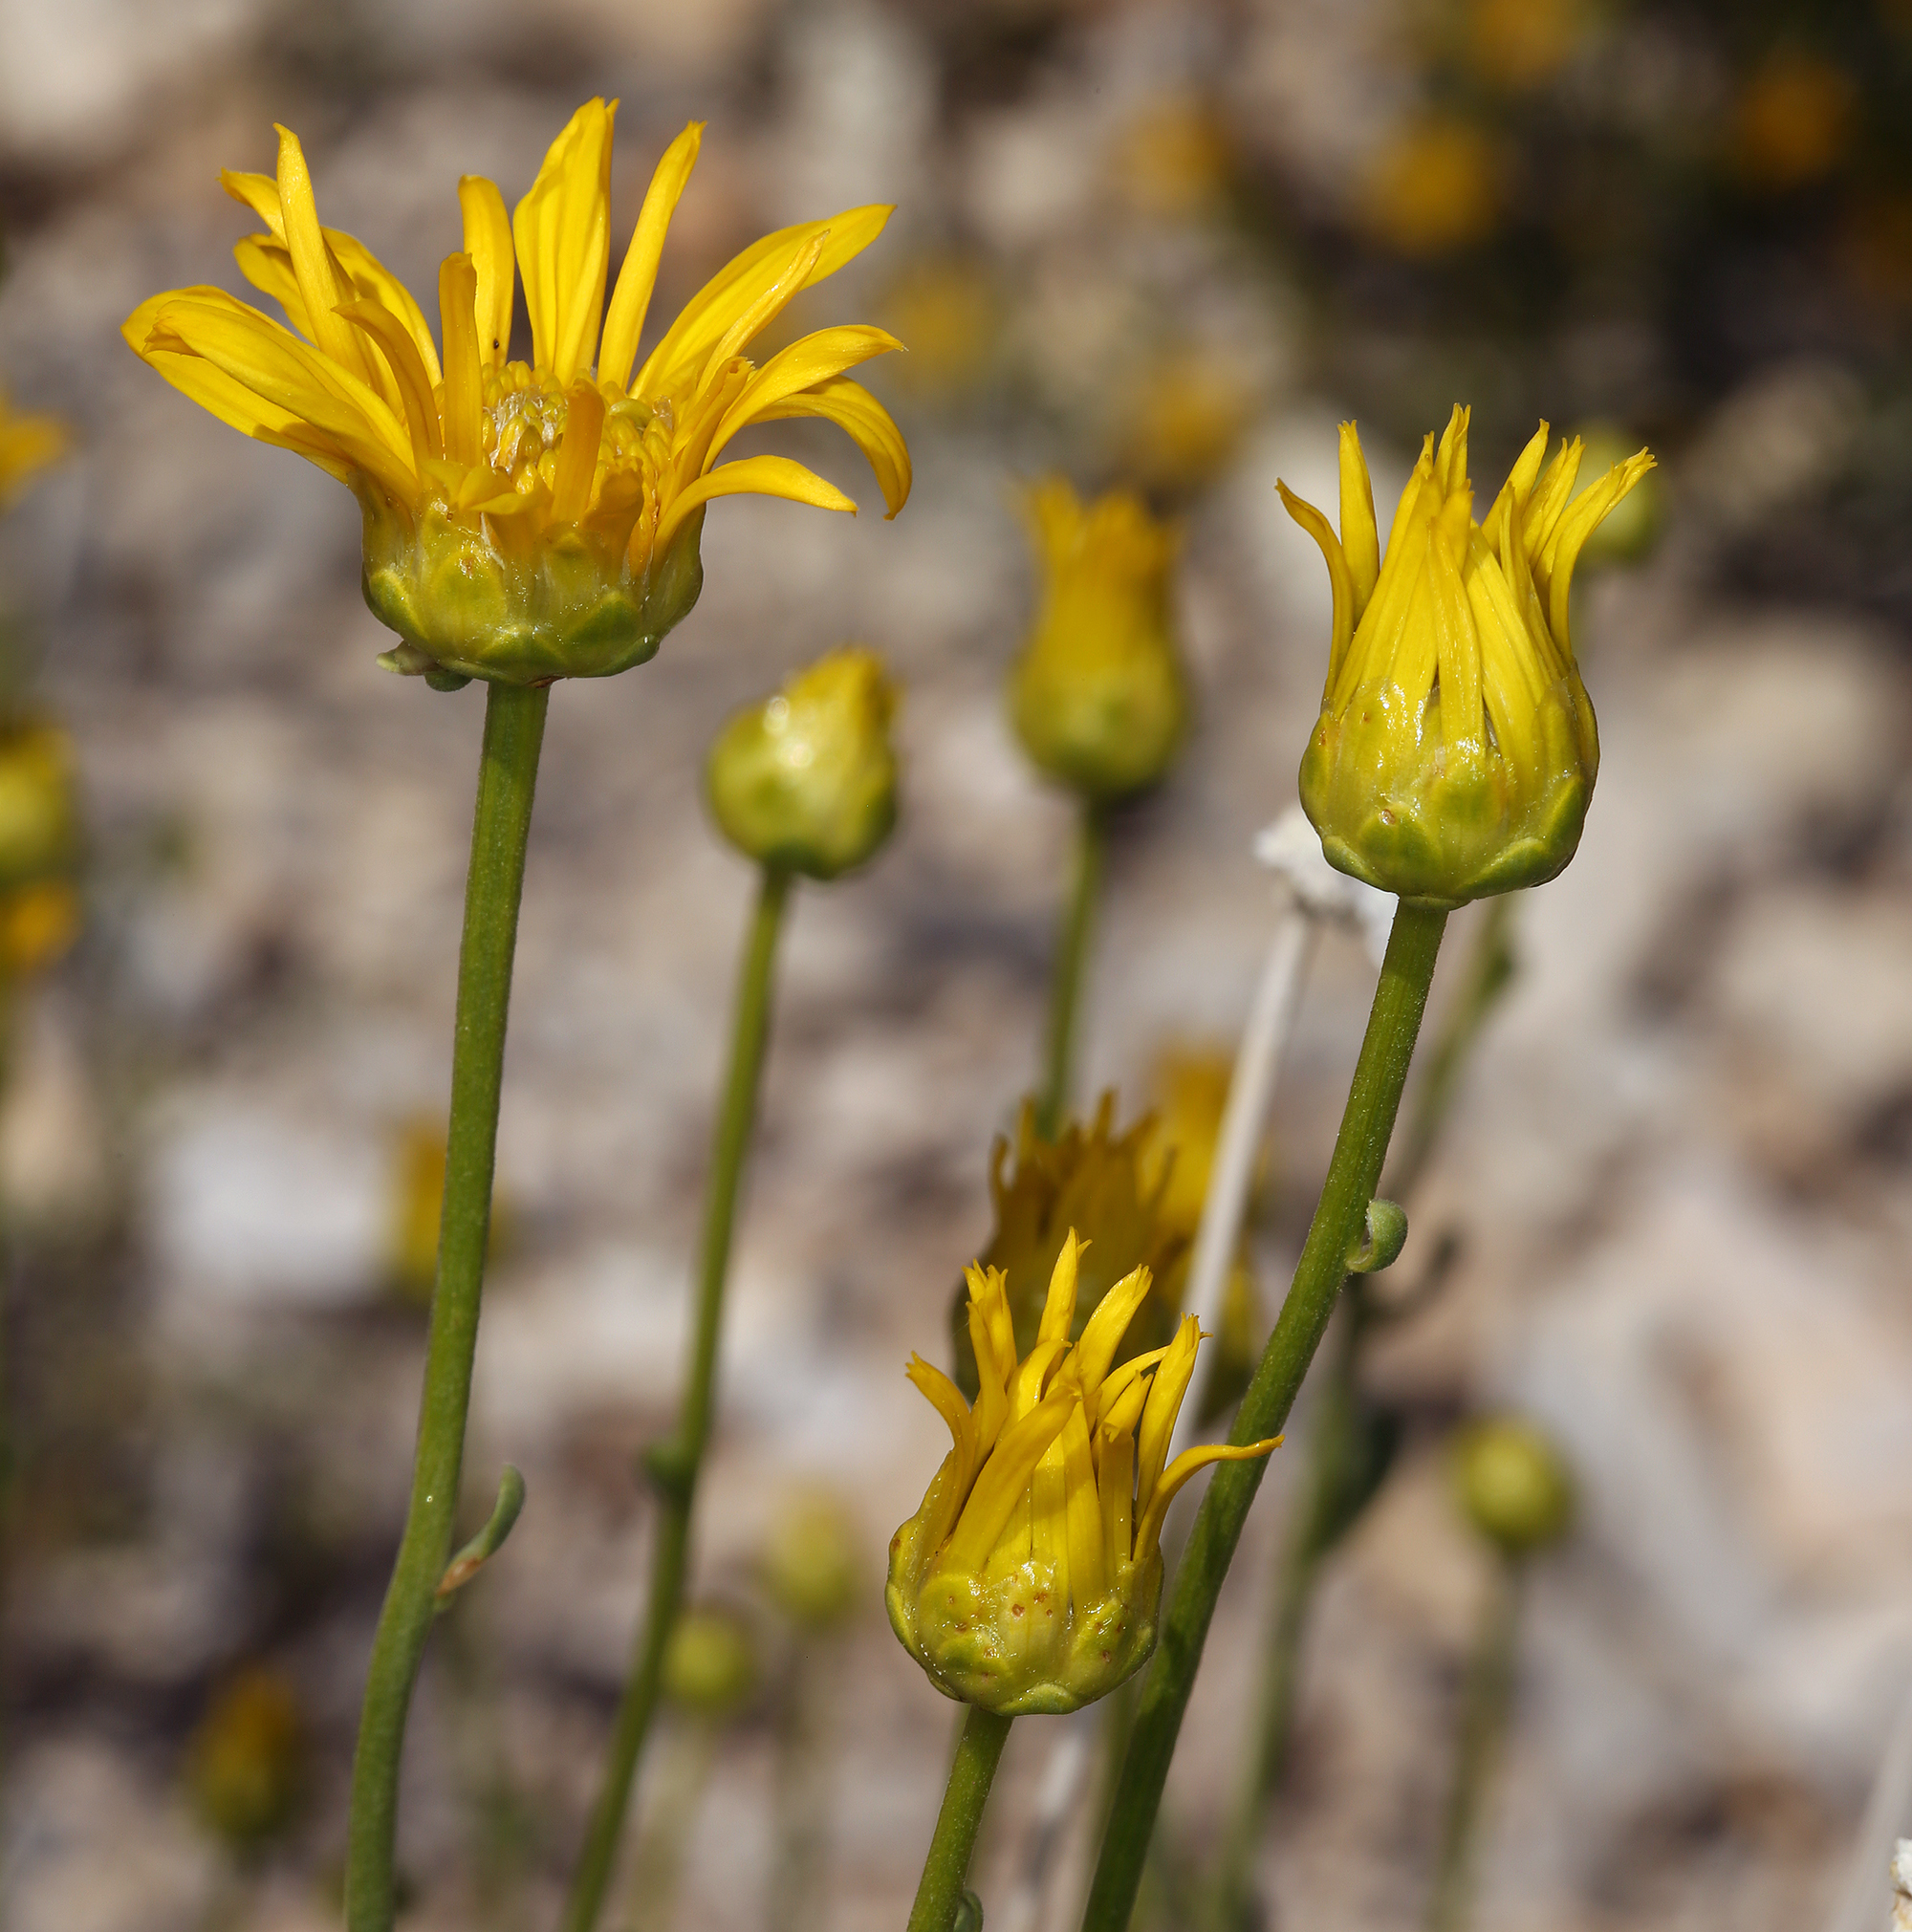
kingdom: Plantae
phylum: Tracheophyta
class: Magnoliopsida
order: Asterales
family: Asteraceae
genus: Acamptopappus
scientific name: Acamptopappus shockleyi
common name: Shockley's goldenhead
